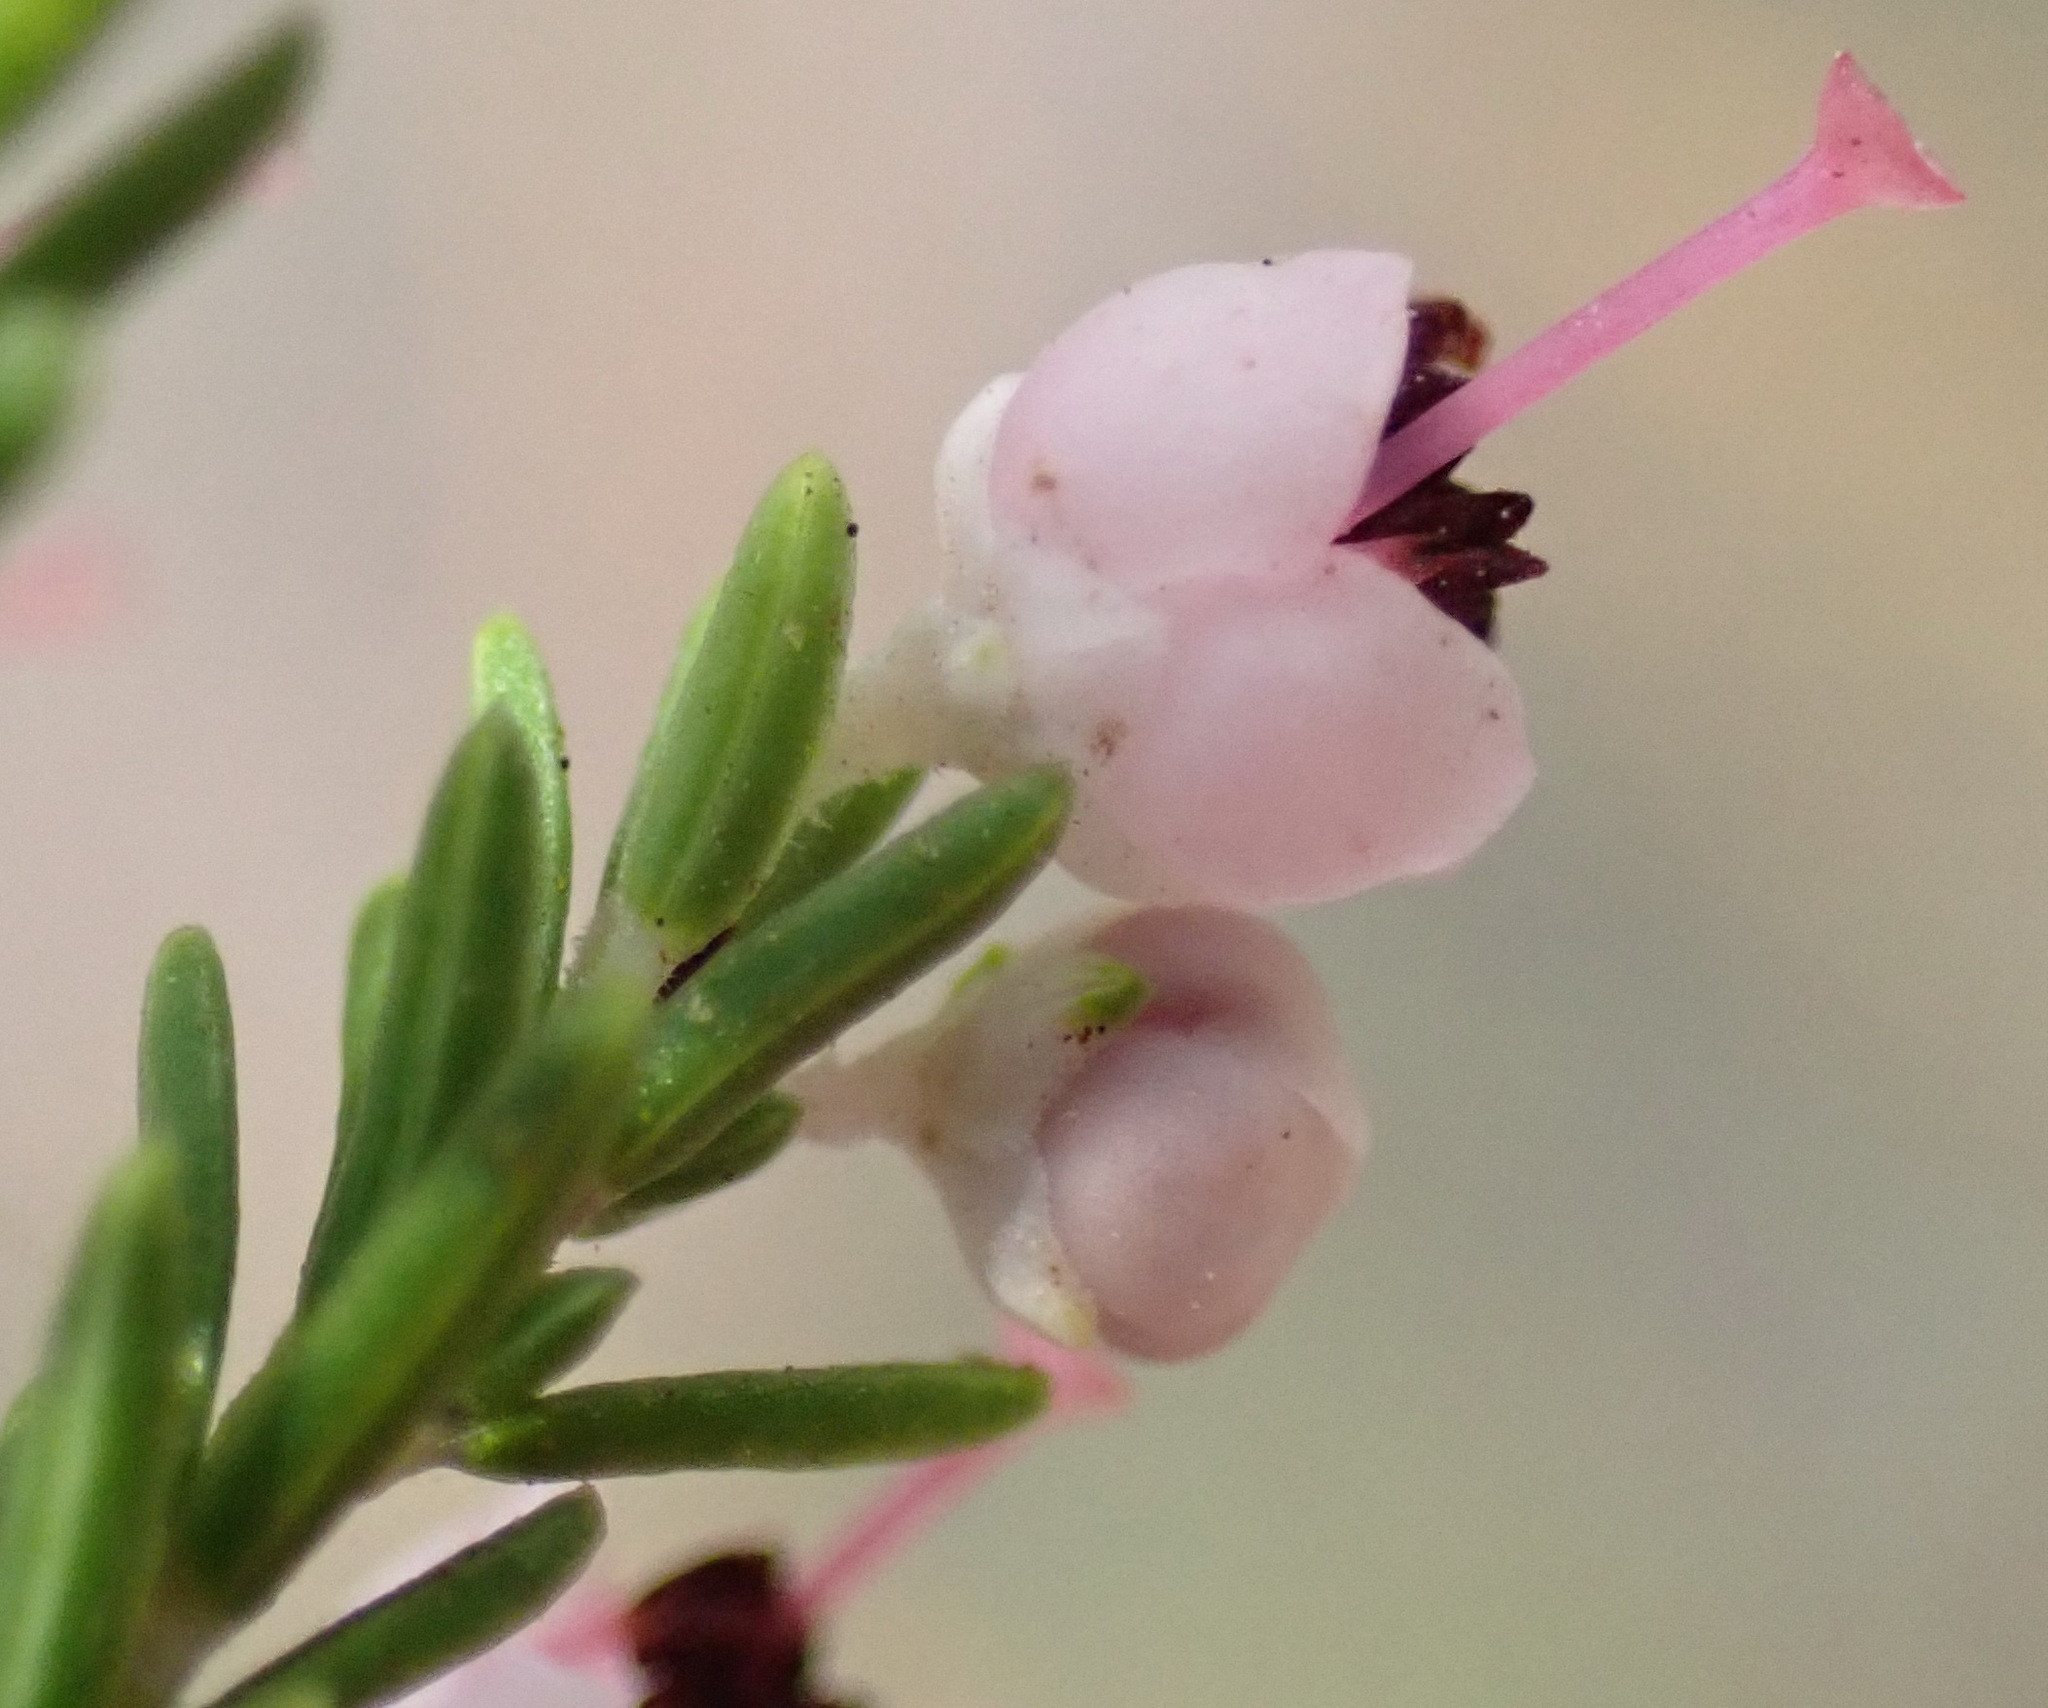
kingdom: Plantae
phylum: Tracheophyta
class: Magnoliopsida
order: Ericales
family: Ericaceae
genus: Erica
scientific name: Erica sparsa
